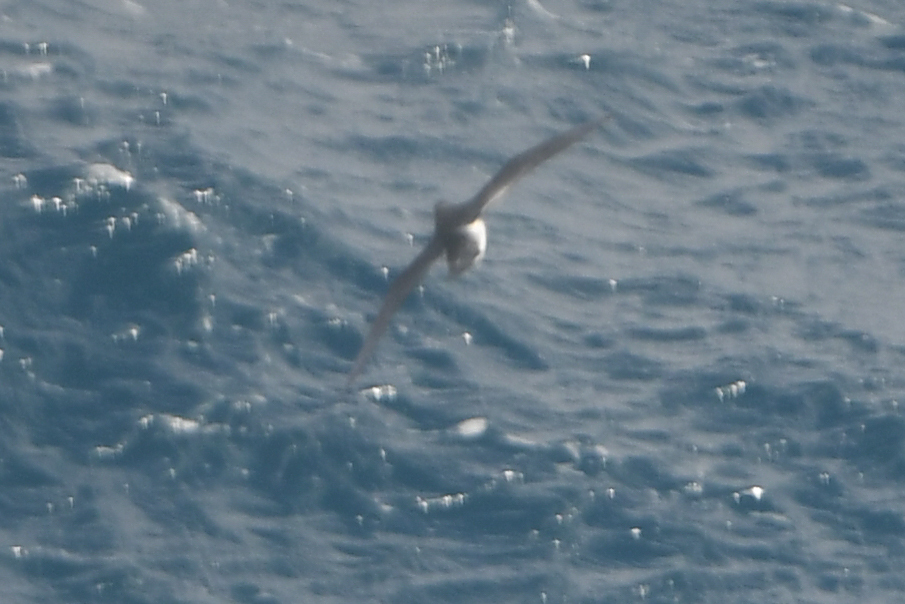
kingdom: Animalia
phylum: Chordata
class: Aves
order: Procellariiformes
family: Procellariidae
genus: Puffinus
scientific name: Puffinus assimilis
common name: Little shearwater
